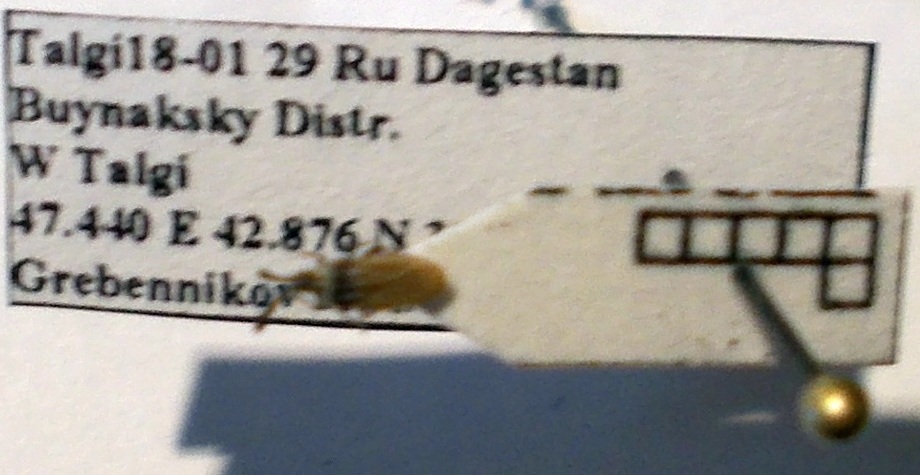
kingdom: Animalia
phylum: Arthropoda
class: Insecta
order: Hemiptera
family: Tingidae
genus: Copium
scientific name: Copium teucrii
